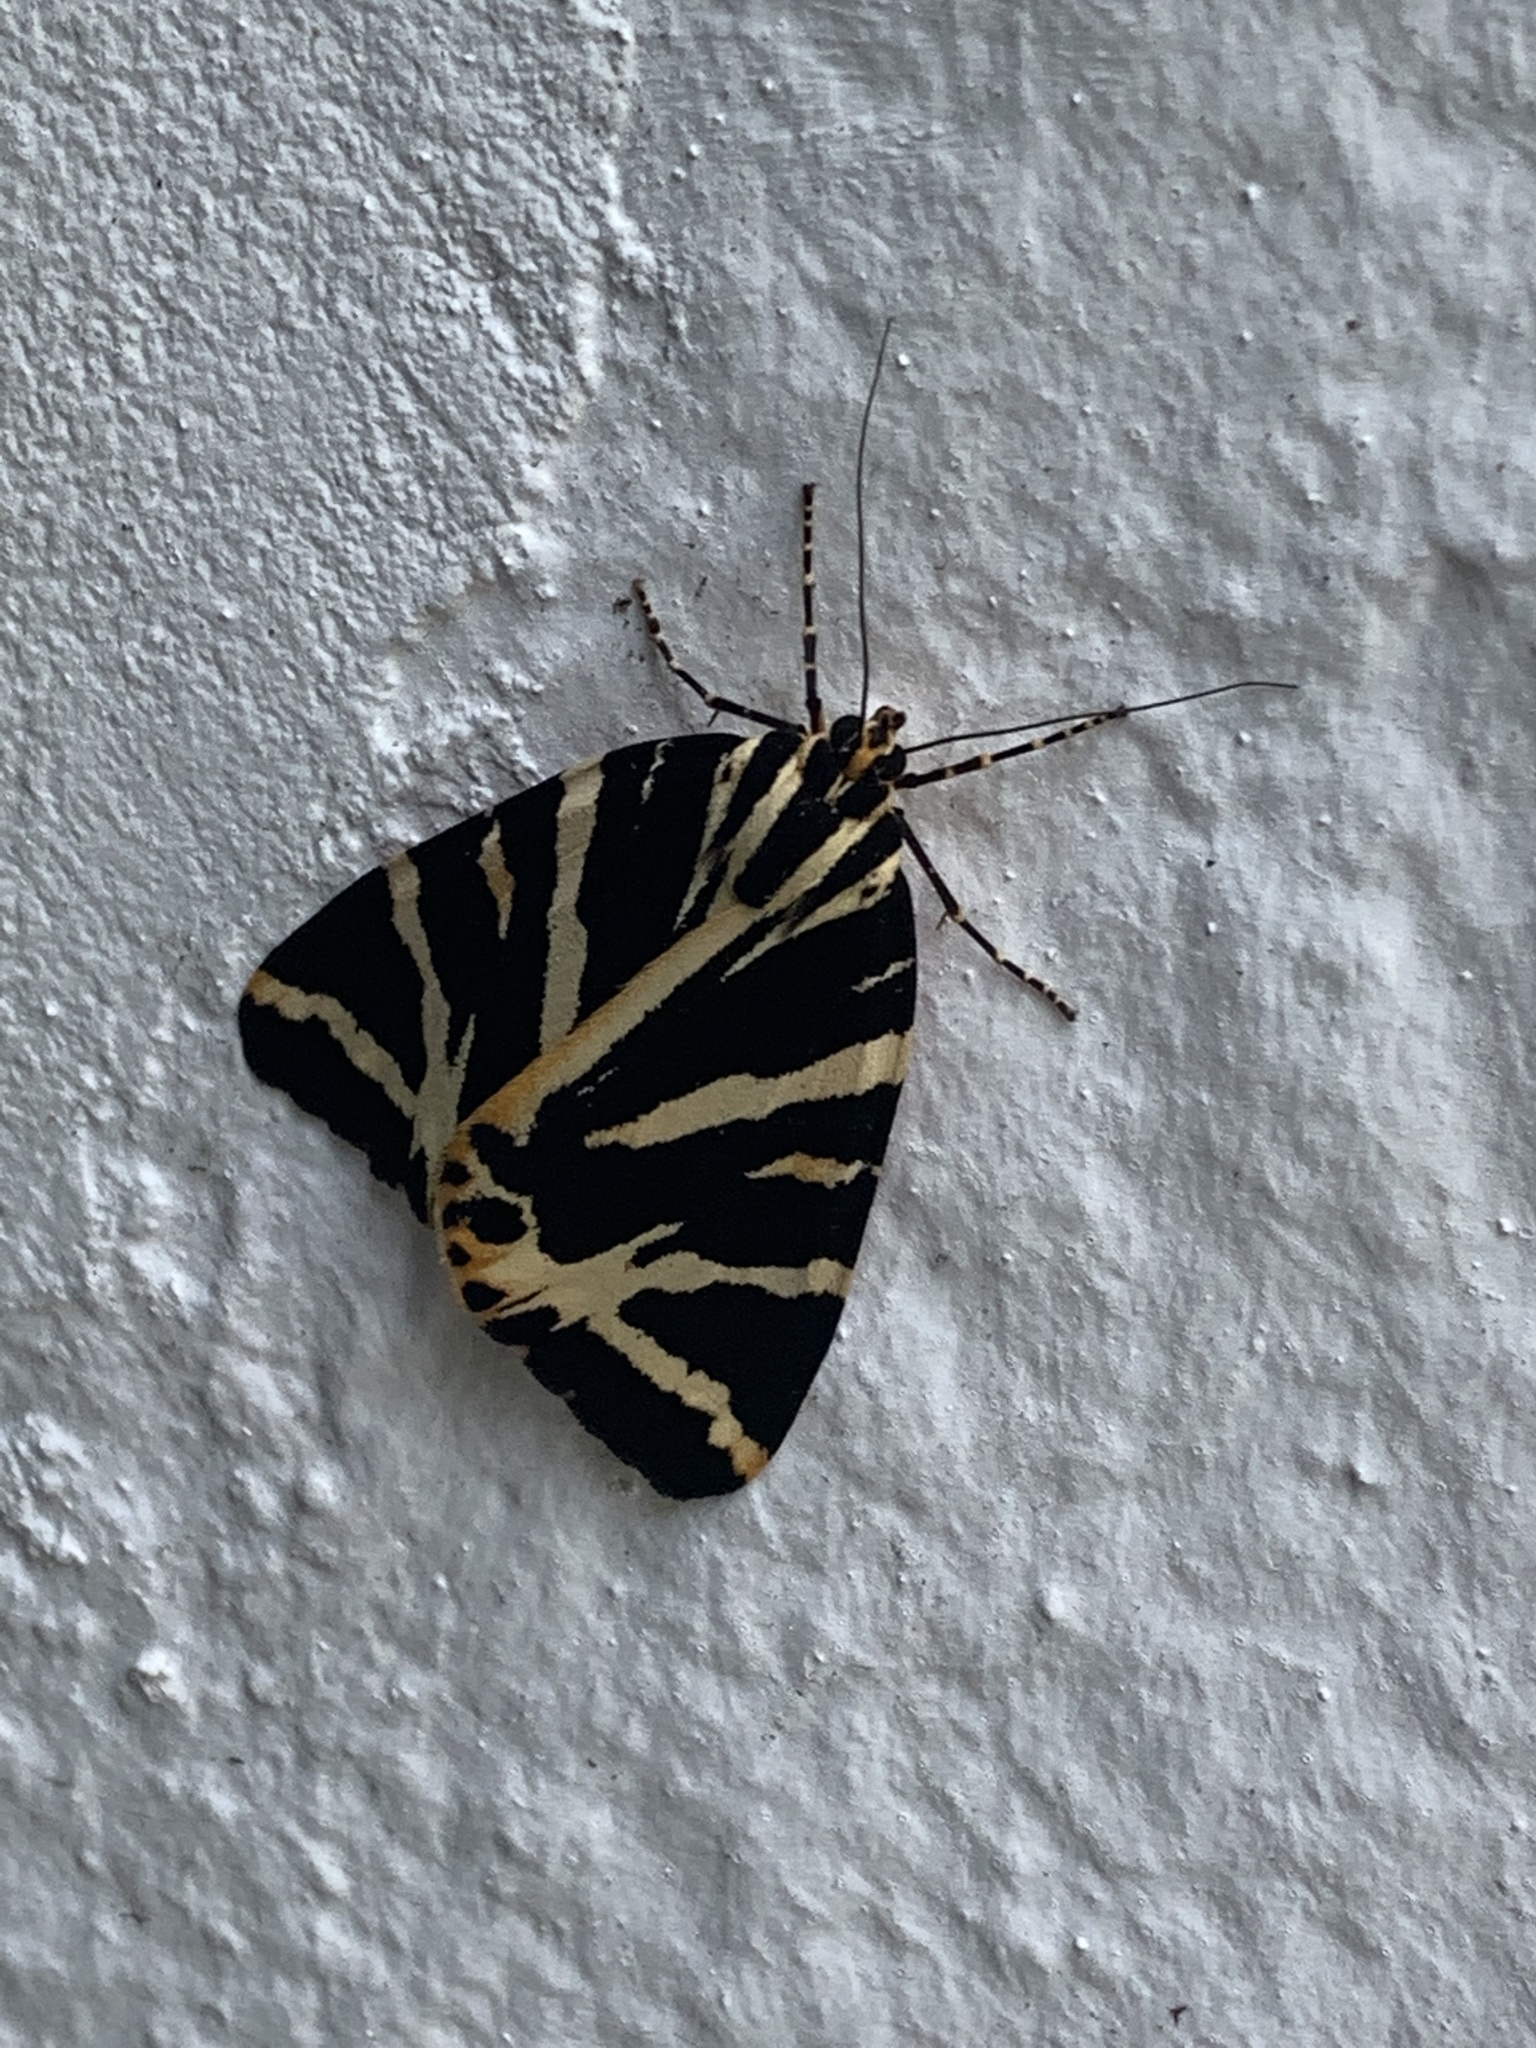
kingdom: Animalia
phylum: Arthropoda
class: Insecta
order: Lepidoptera
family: Erebidae
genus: Euplagia
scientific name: Euplagia quadripunctaria
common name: Jersey tiger
